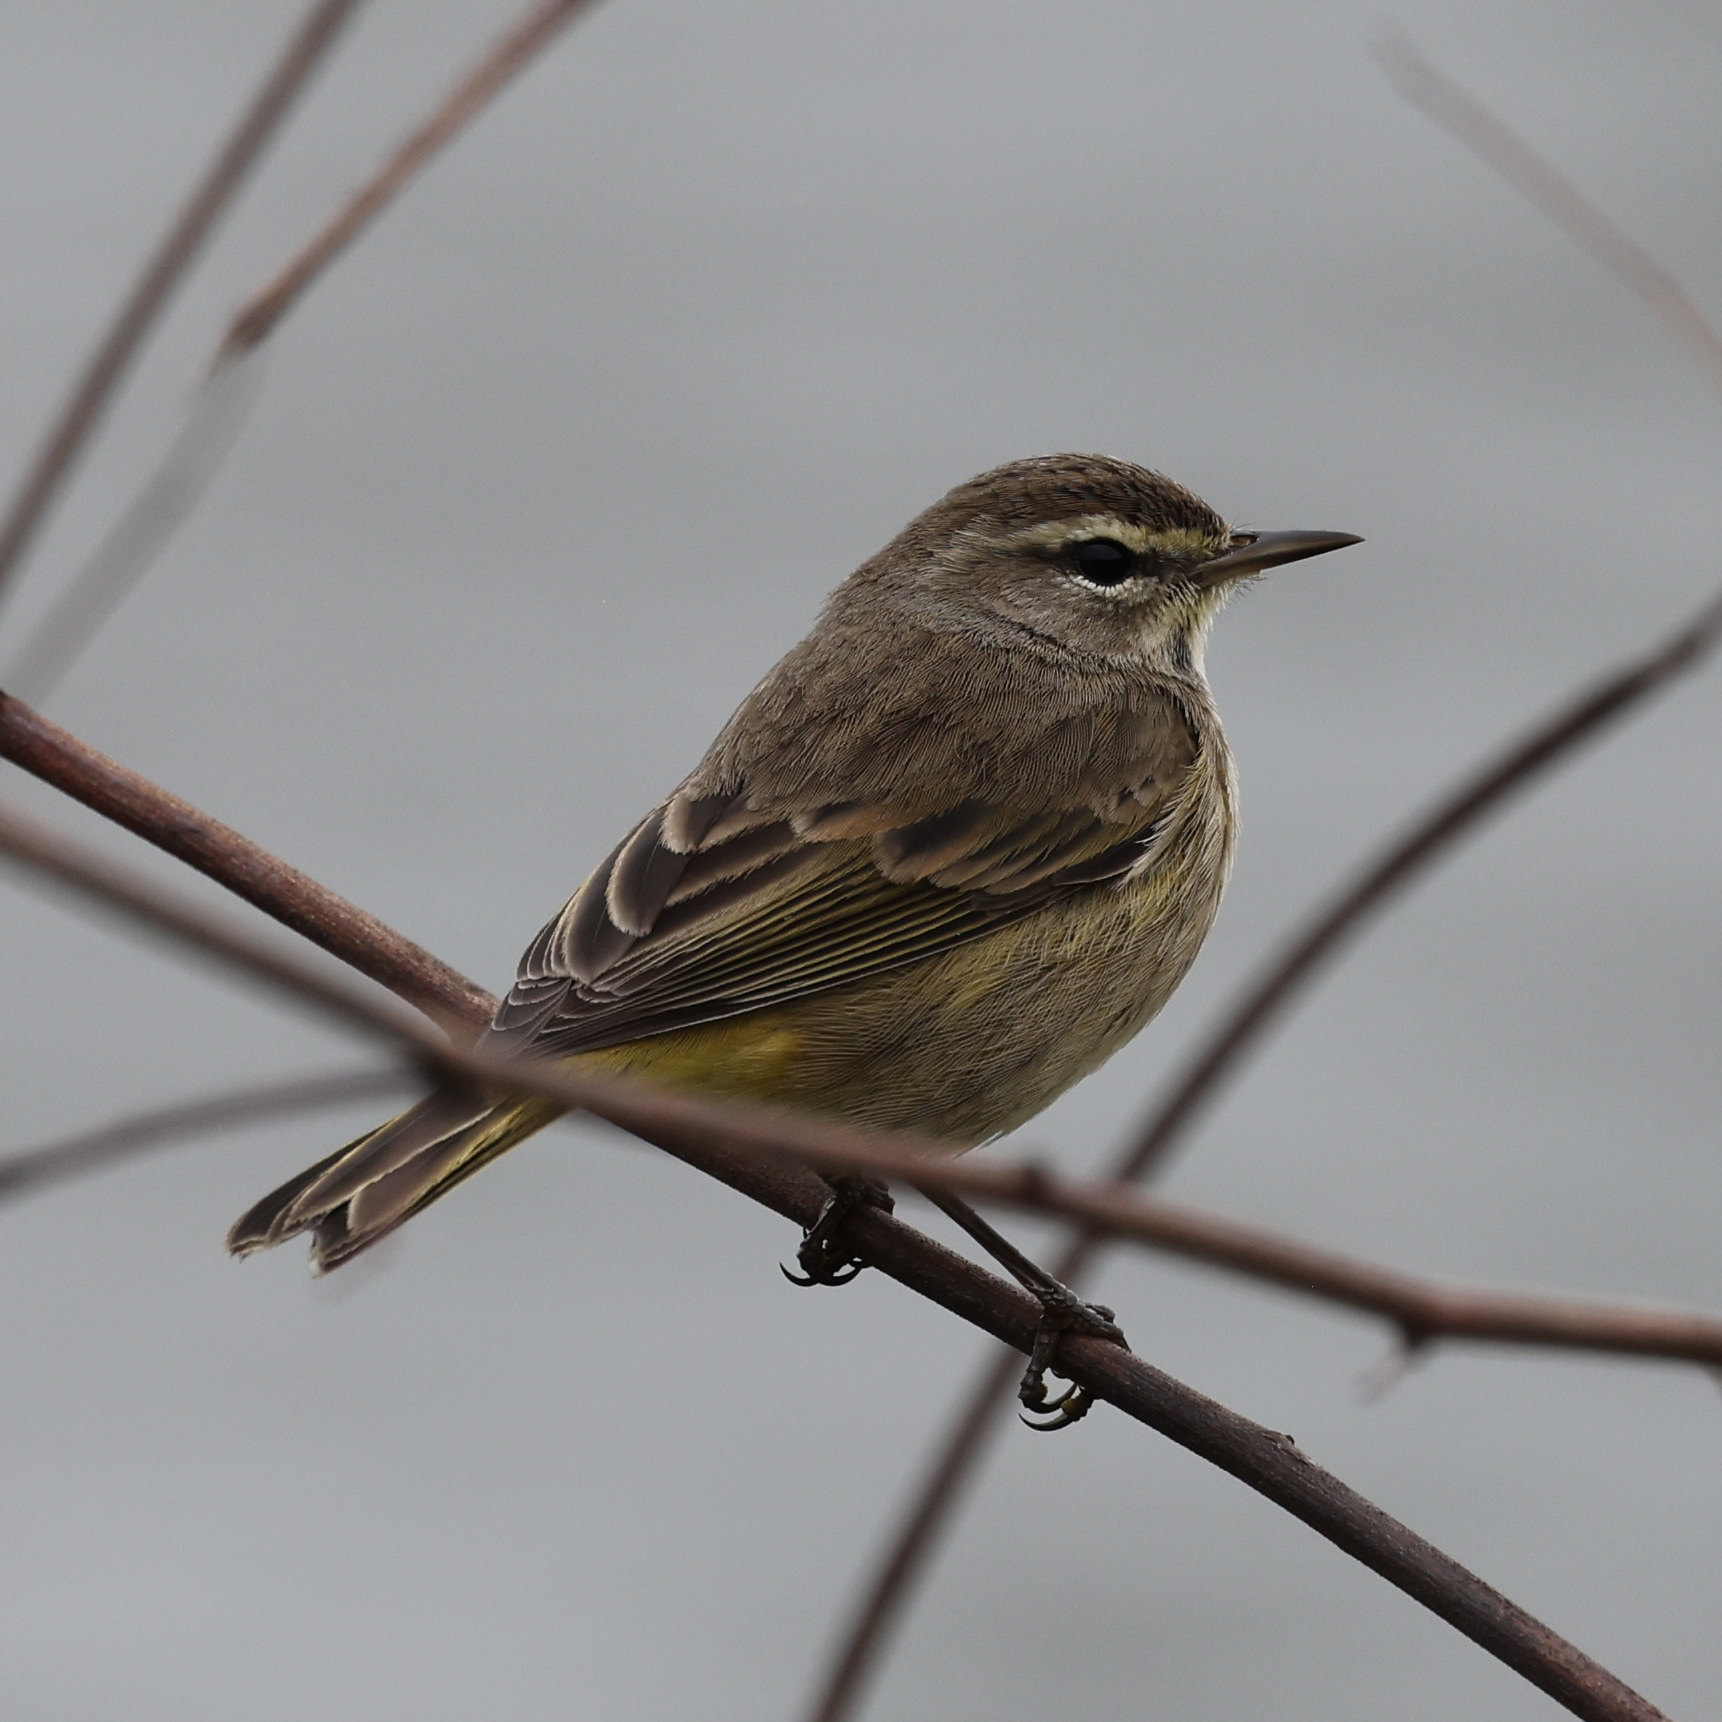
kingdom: Animalia
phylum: Chordata
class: Aves
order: Passeriformes
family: Parulidae
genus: Setophaga
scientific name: Setophaga palmarum
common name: Palm warbler
